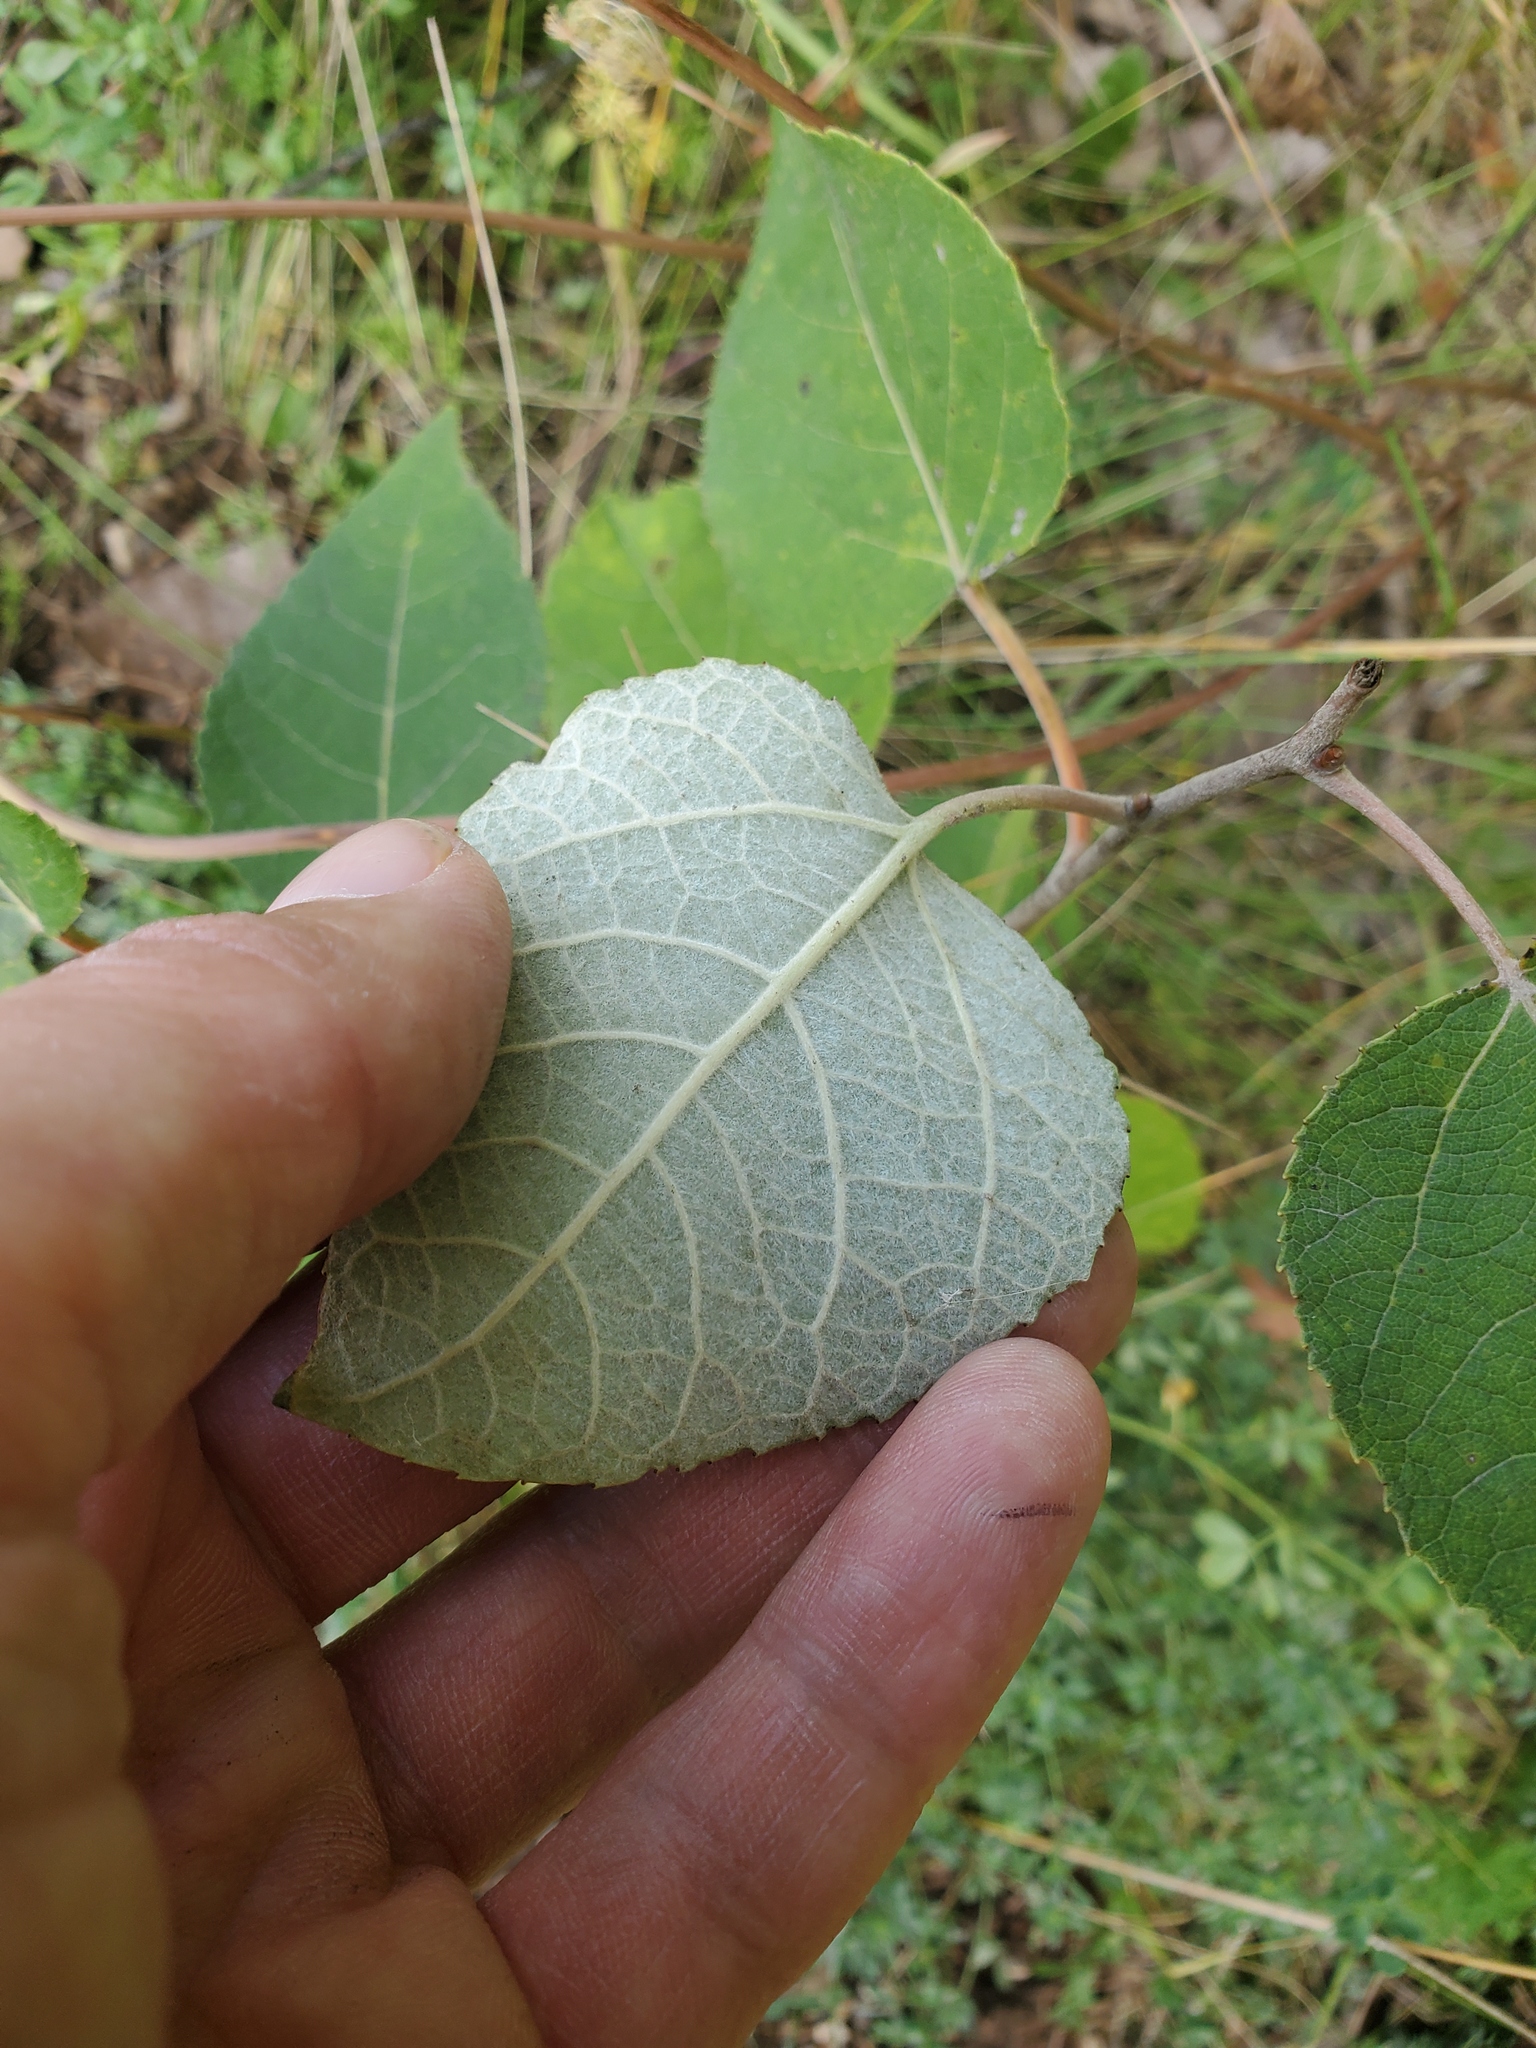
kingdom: Plantae
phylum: Tracheophyta
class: Magnoliopsida
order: Malpighiales
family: Salicaceae
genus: Populus
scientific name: Populus grandidentata
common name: Bigtooth aspen
